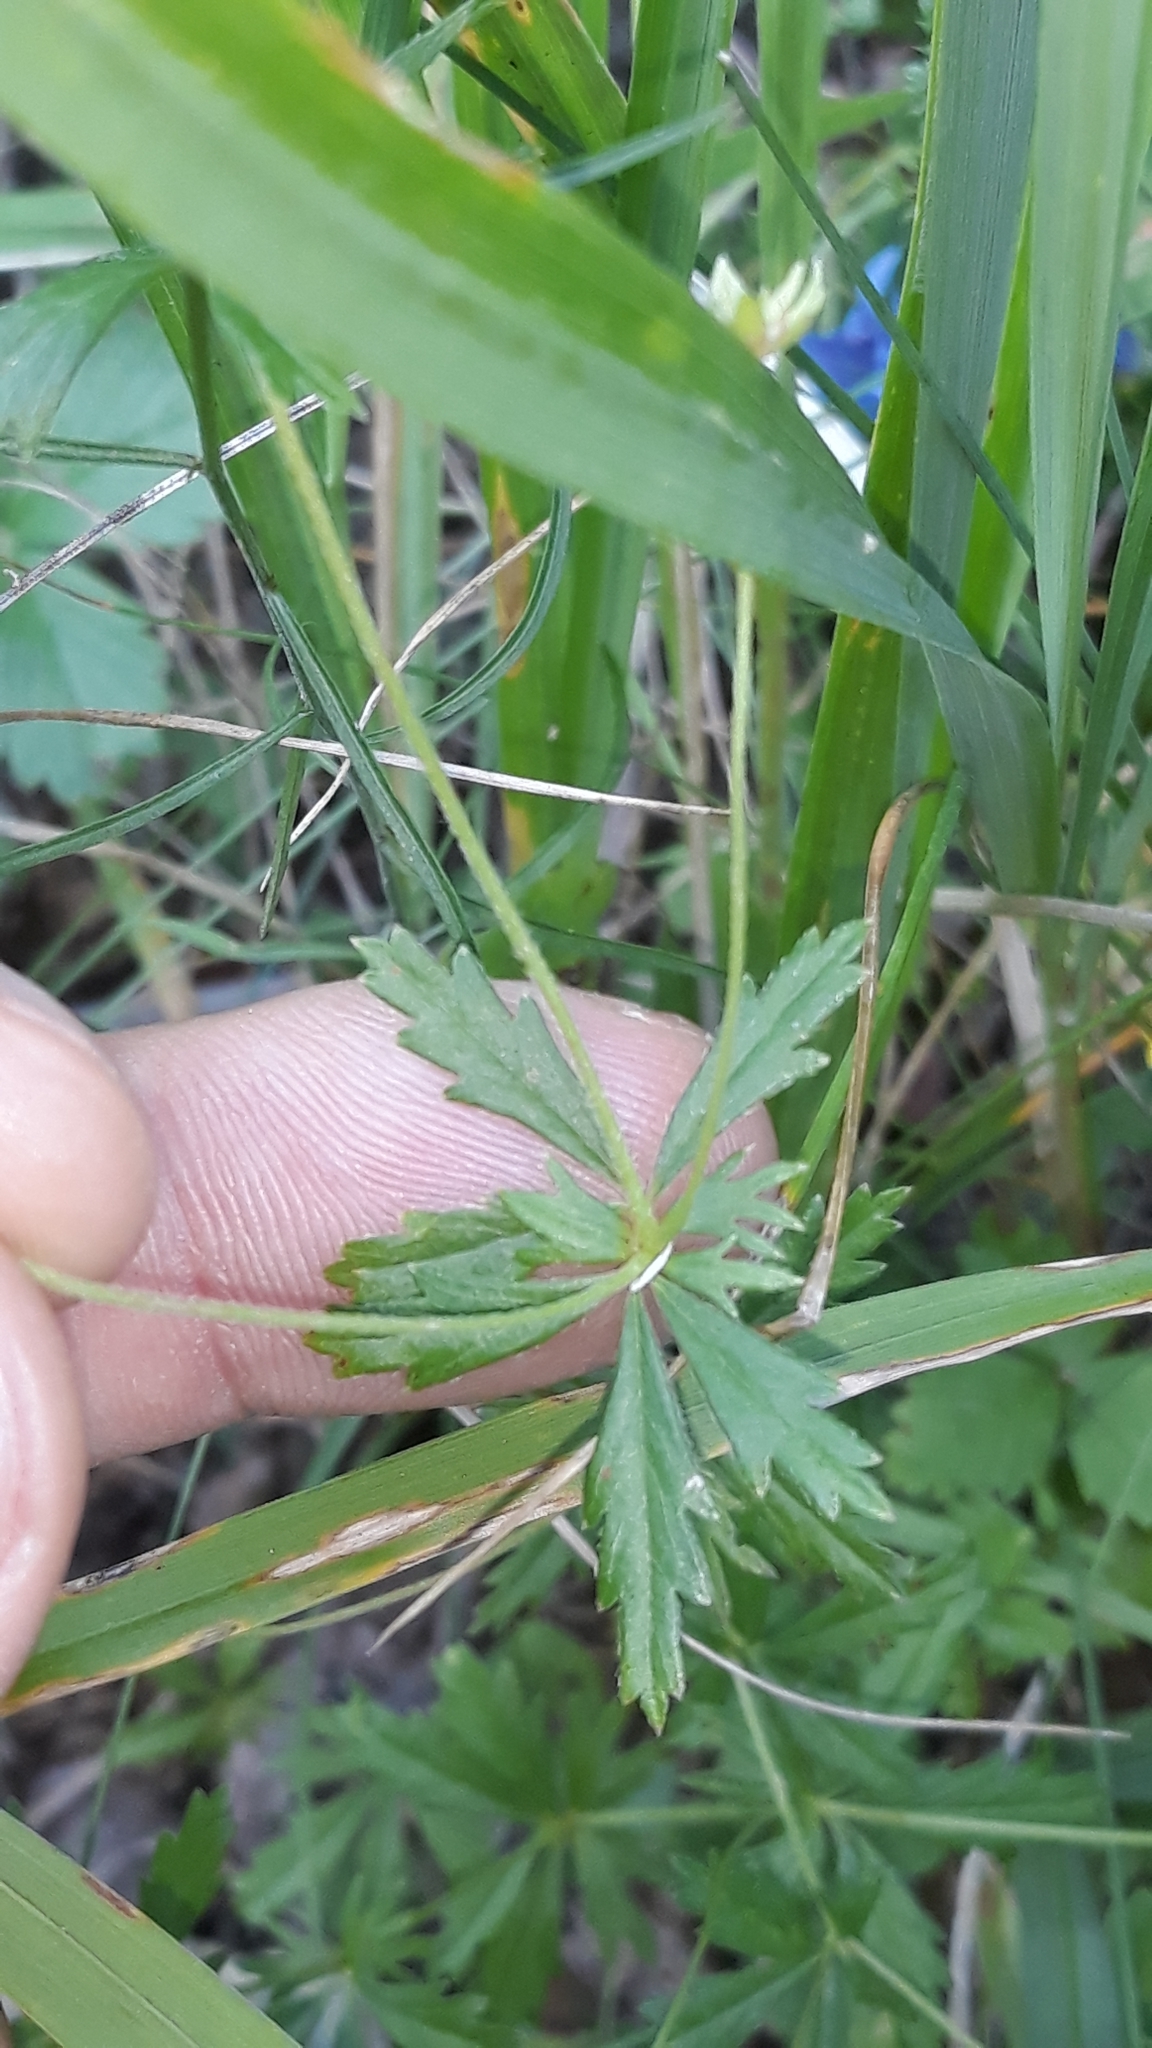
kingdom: Plantae
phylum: Tracheophyta
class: Magnoliopsida
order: Rosales
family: Rosaceae
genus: Potentilla
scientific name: Potentilla erecta
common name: Tormentil
